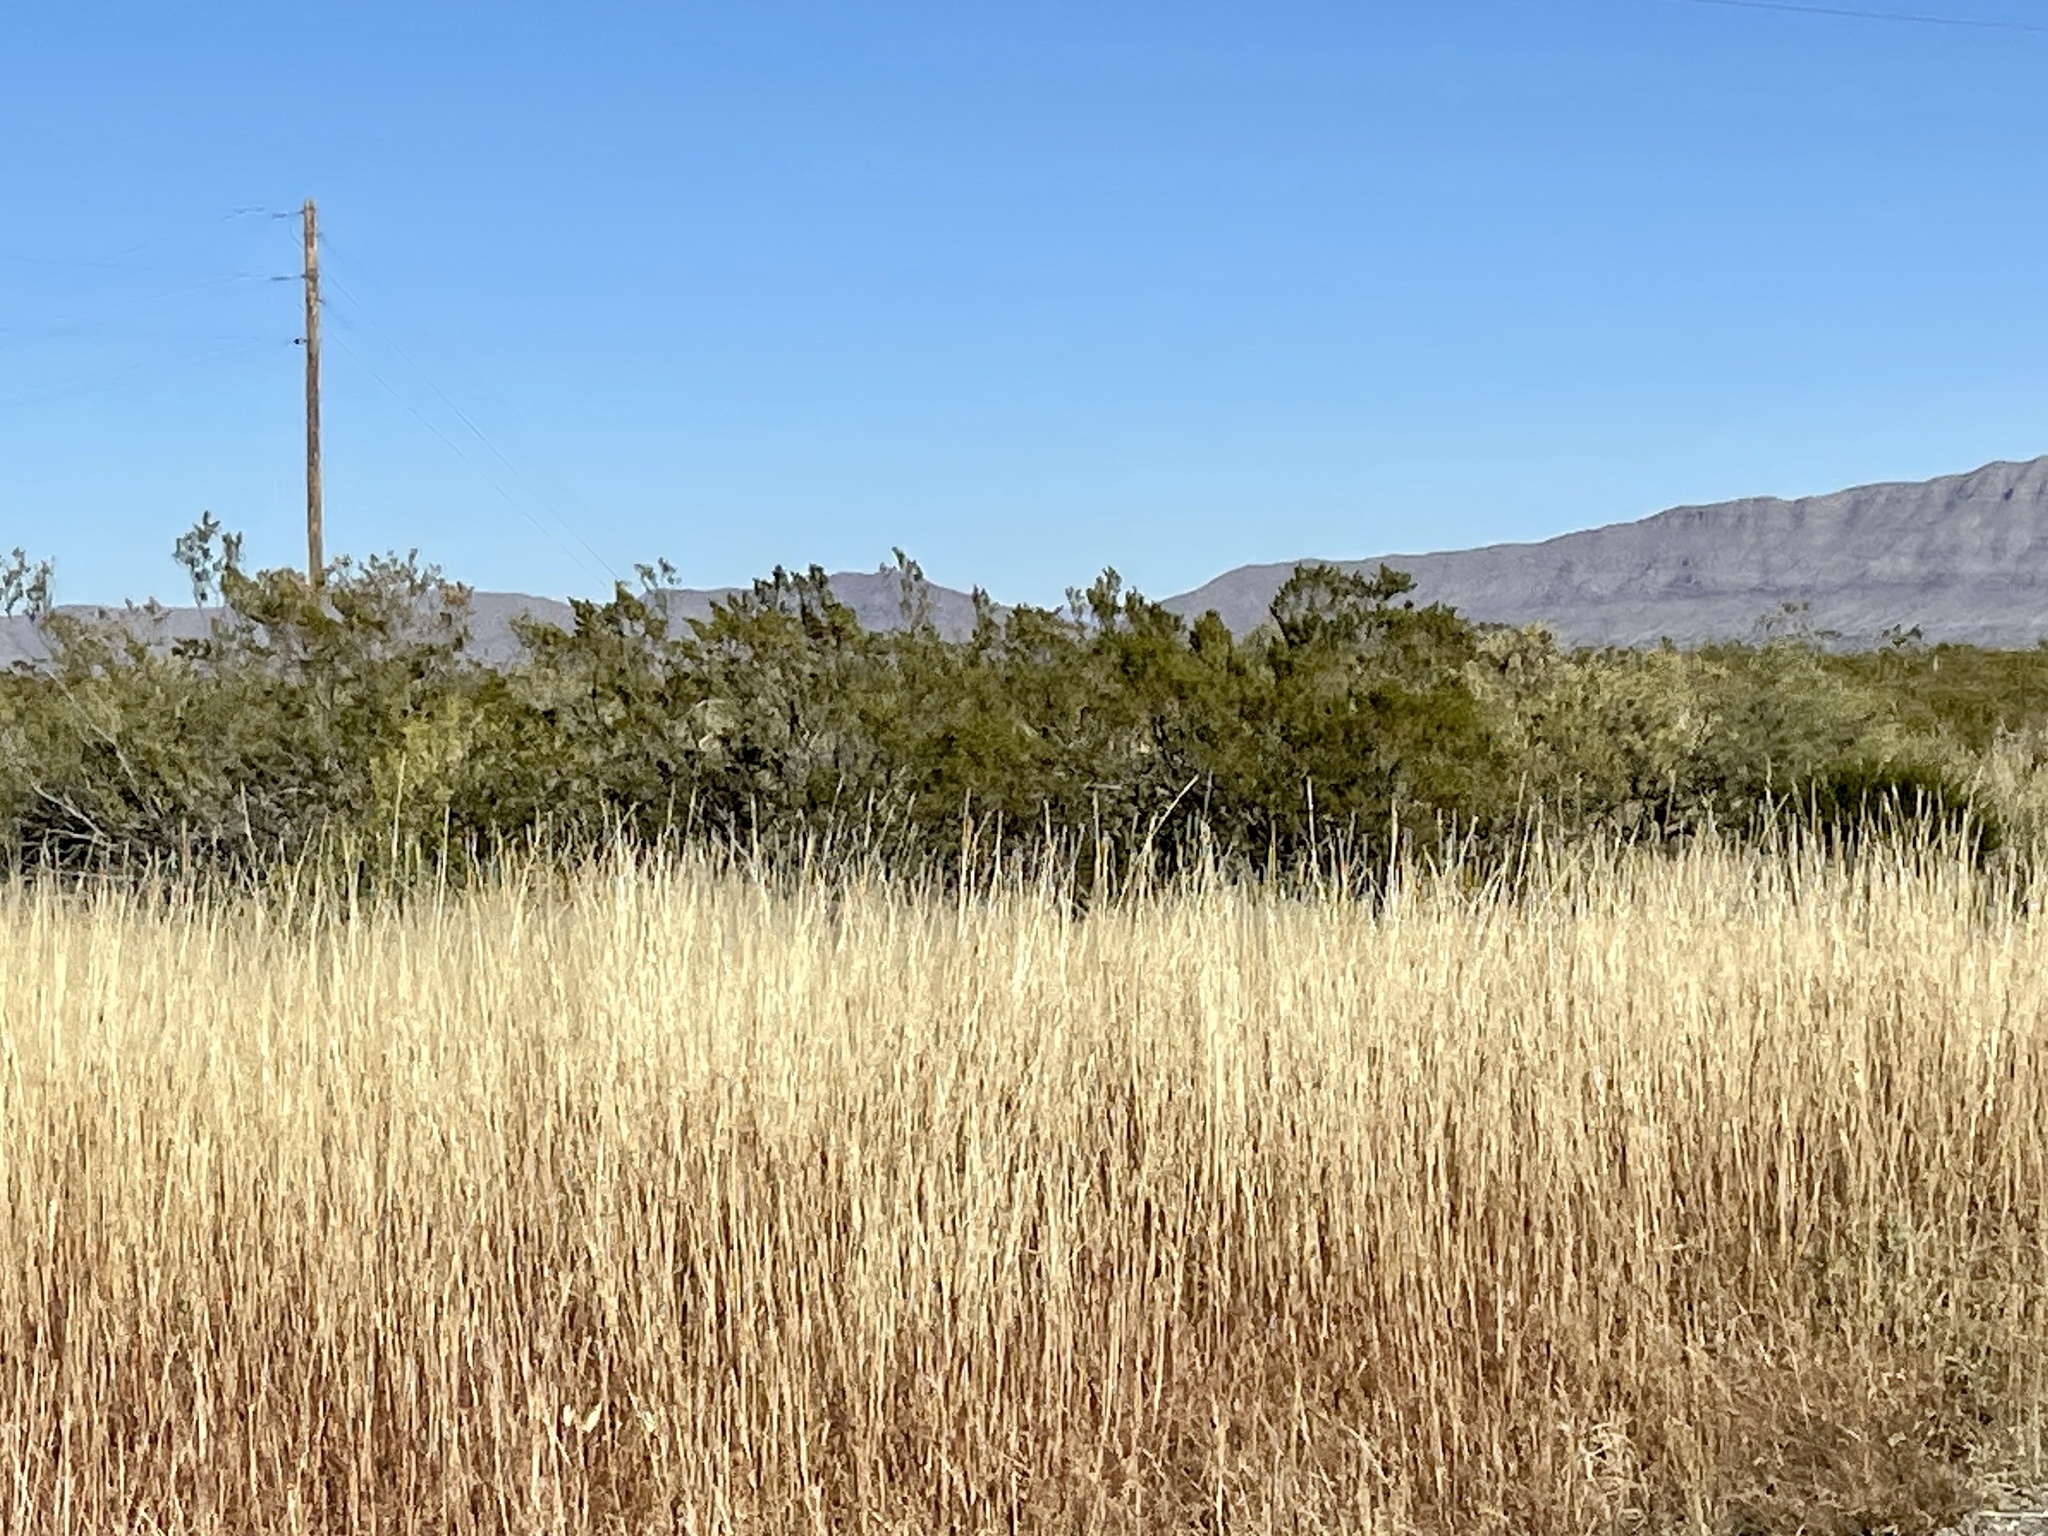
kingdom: Plantae
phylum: Tracheophyta
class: Magnoliopsida
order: Zygophyllales
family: Zygophyllaceae
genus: Larrea
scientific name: Larrea tridentata
